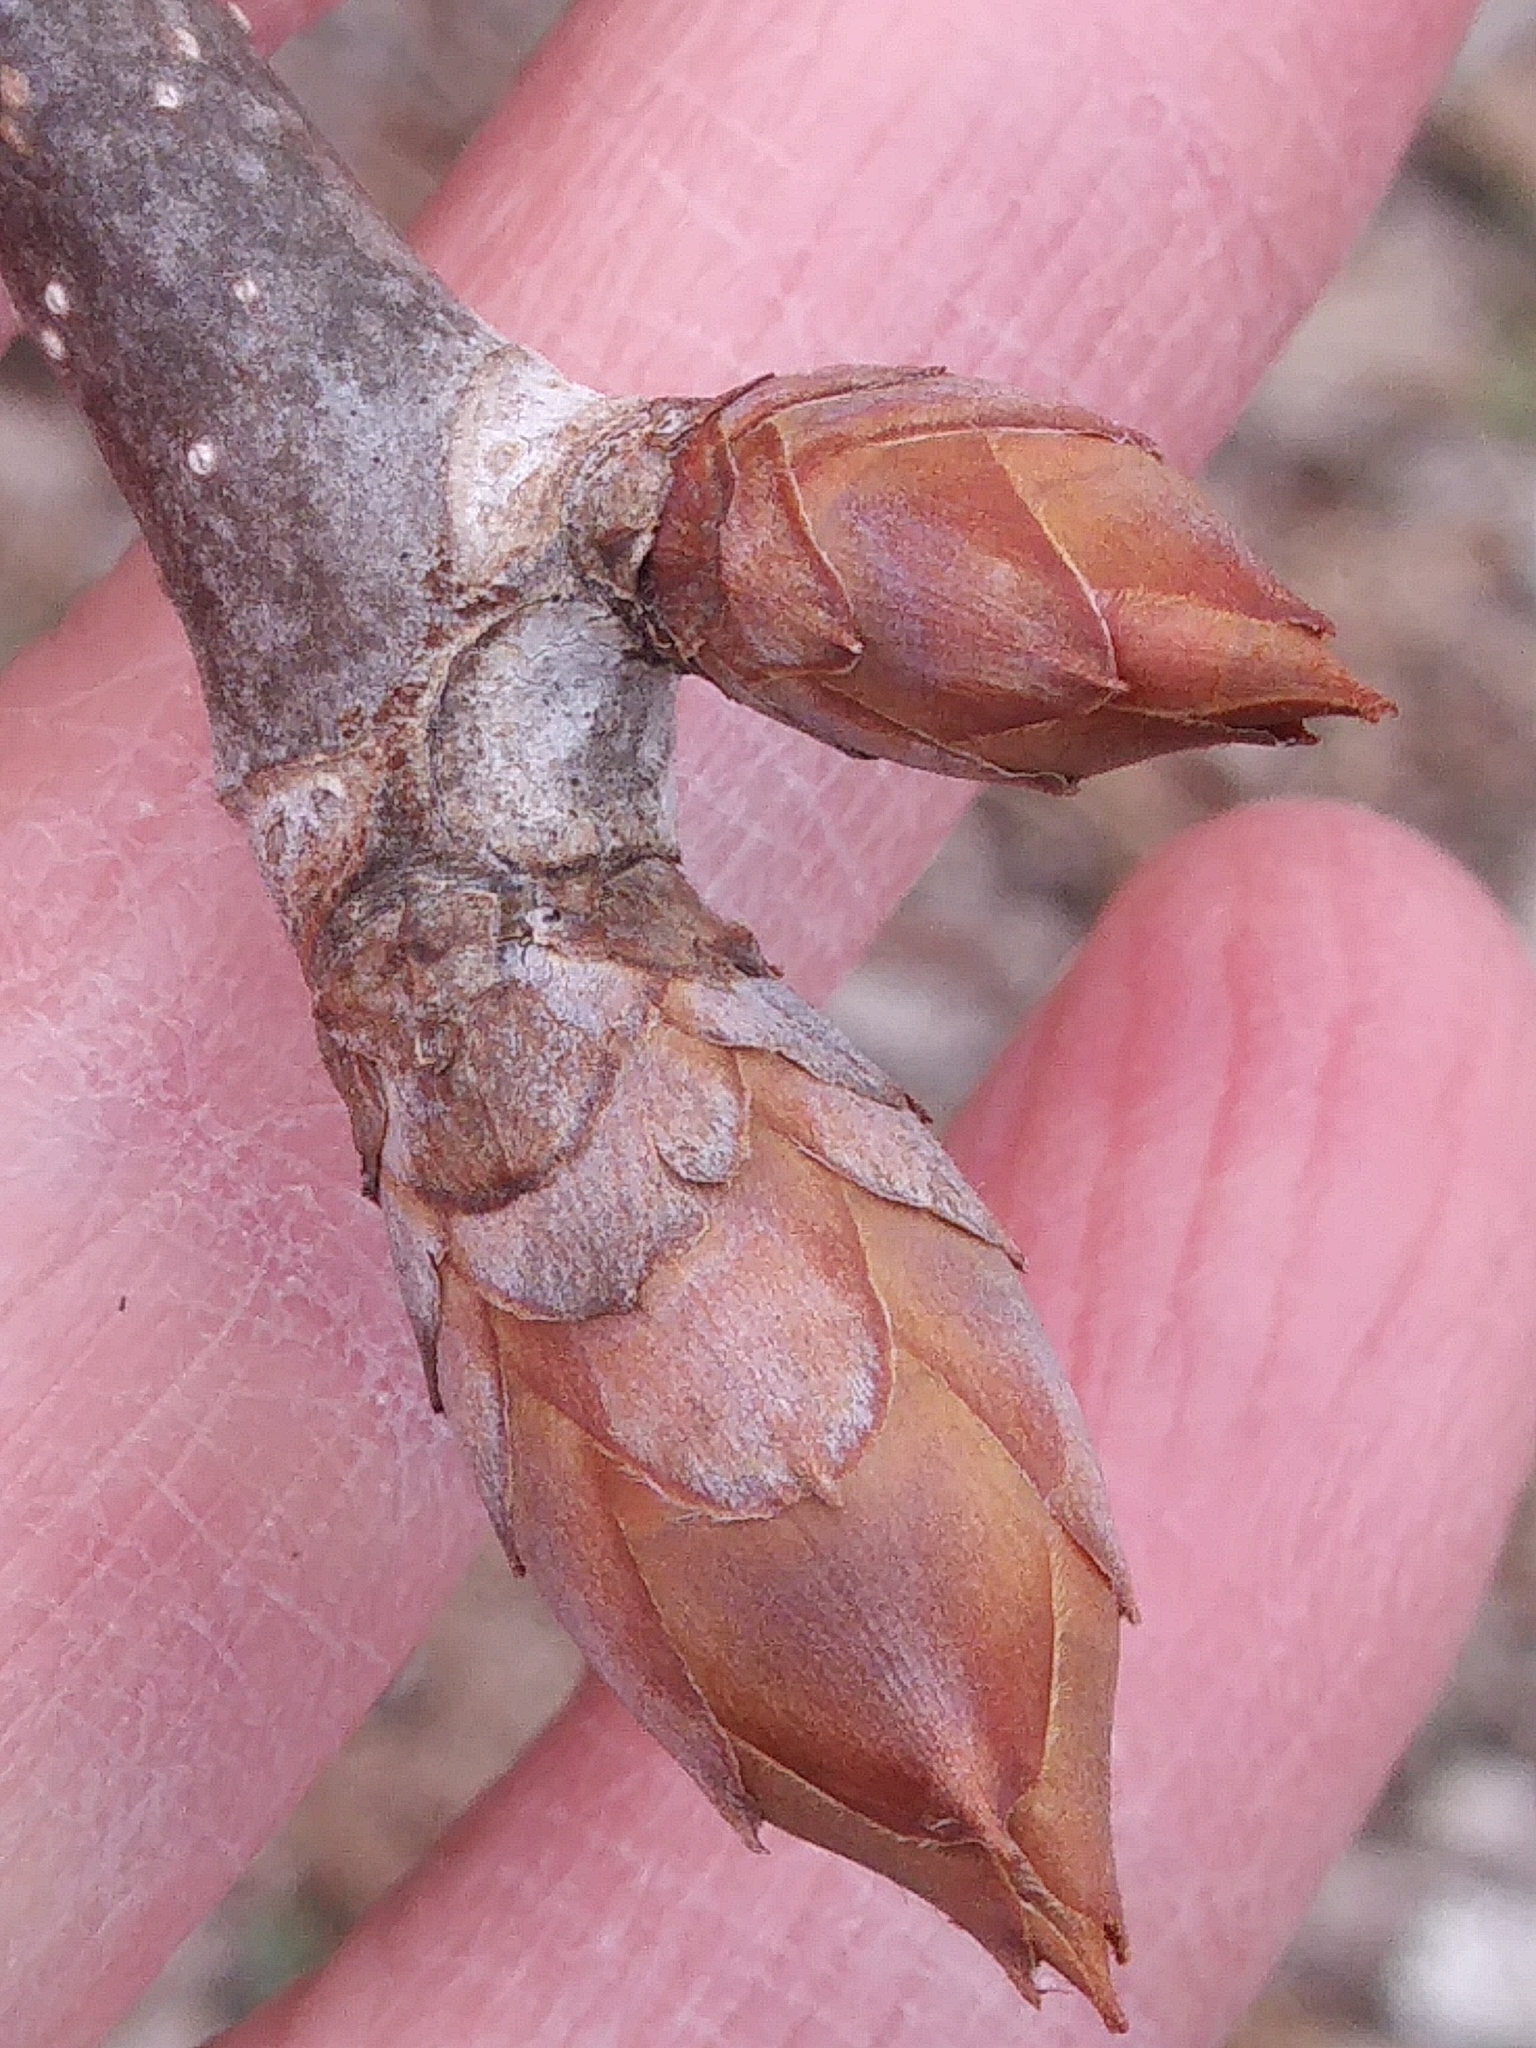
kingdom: Plantae
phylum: Tracheophyta
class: Magnoliopsida
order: Sapindales
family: Sapindaceae
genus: Aesculus
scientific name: Aesculus hippocastanum
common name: Horse-chestnut
